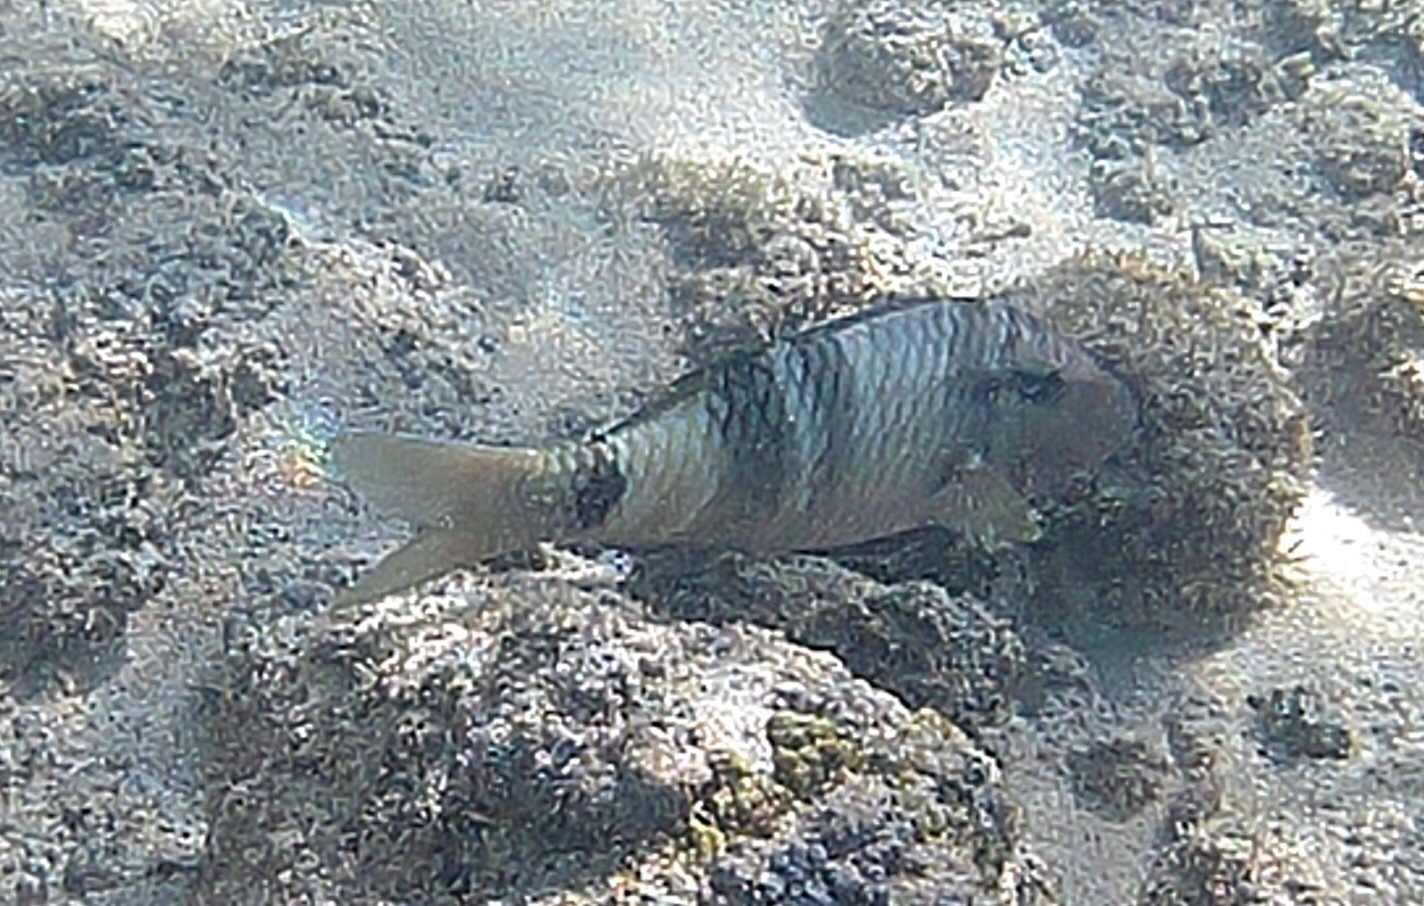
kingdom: Animalia
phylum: Chordata
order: Perciformes
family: Mullidae
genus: Parupeneus
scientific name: Parupeneus multifasciatus
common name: Manybar goatfish
